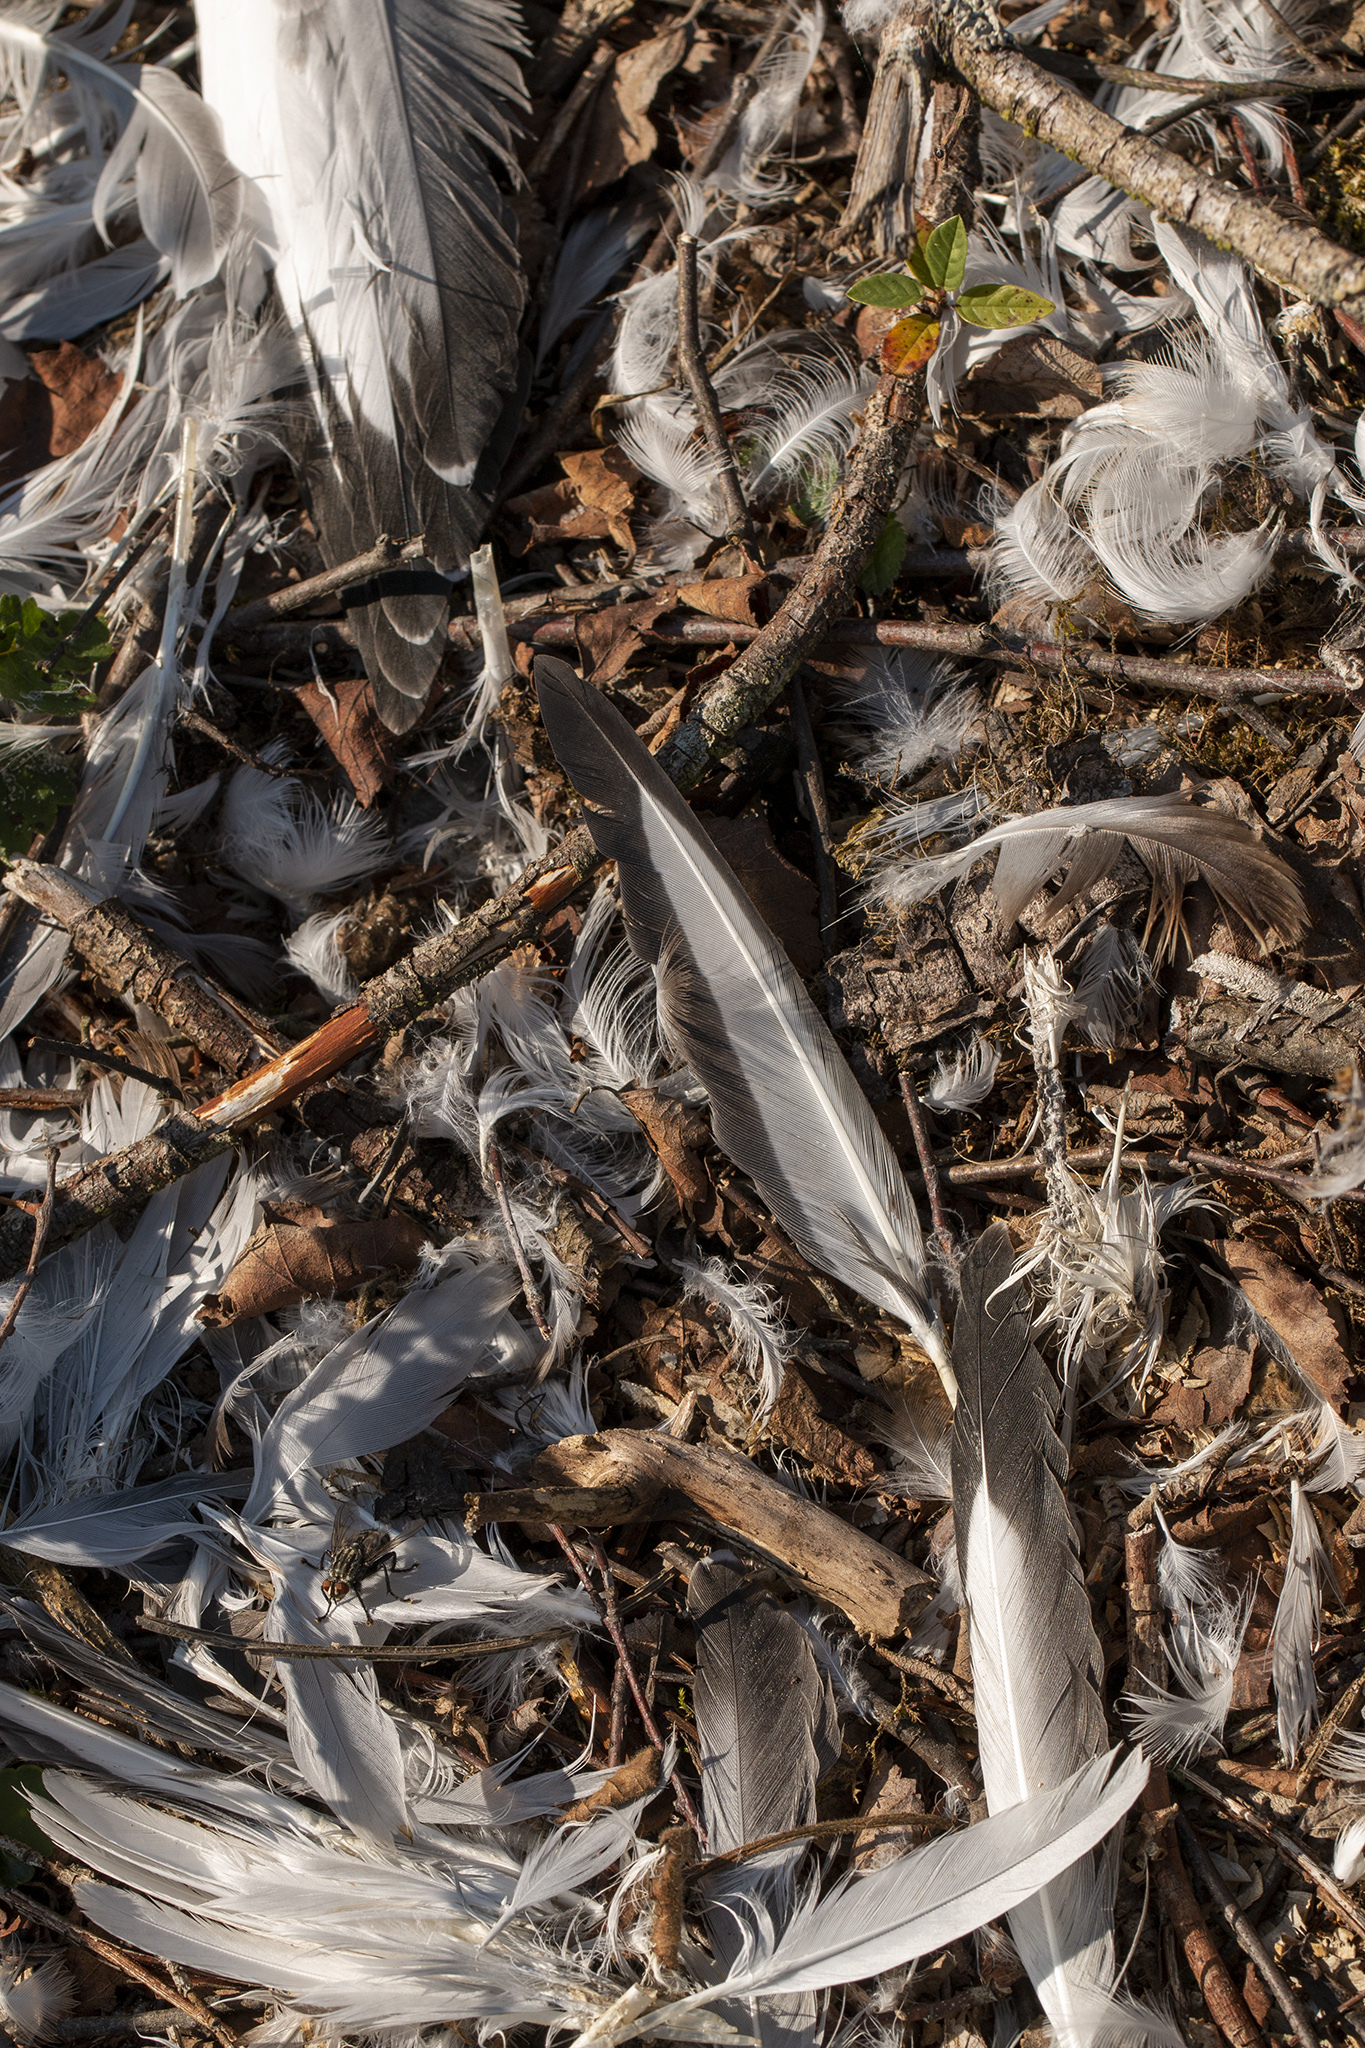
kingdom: Animalia
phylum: Chordata
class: Aves
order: Charadriiformes
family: Laridae
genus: Chroicocephalus
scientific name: Chroicocephalus ridibundus
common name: Black-headed gull
